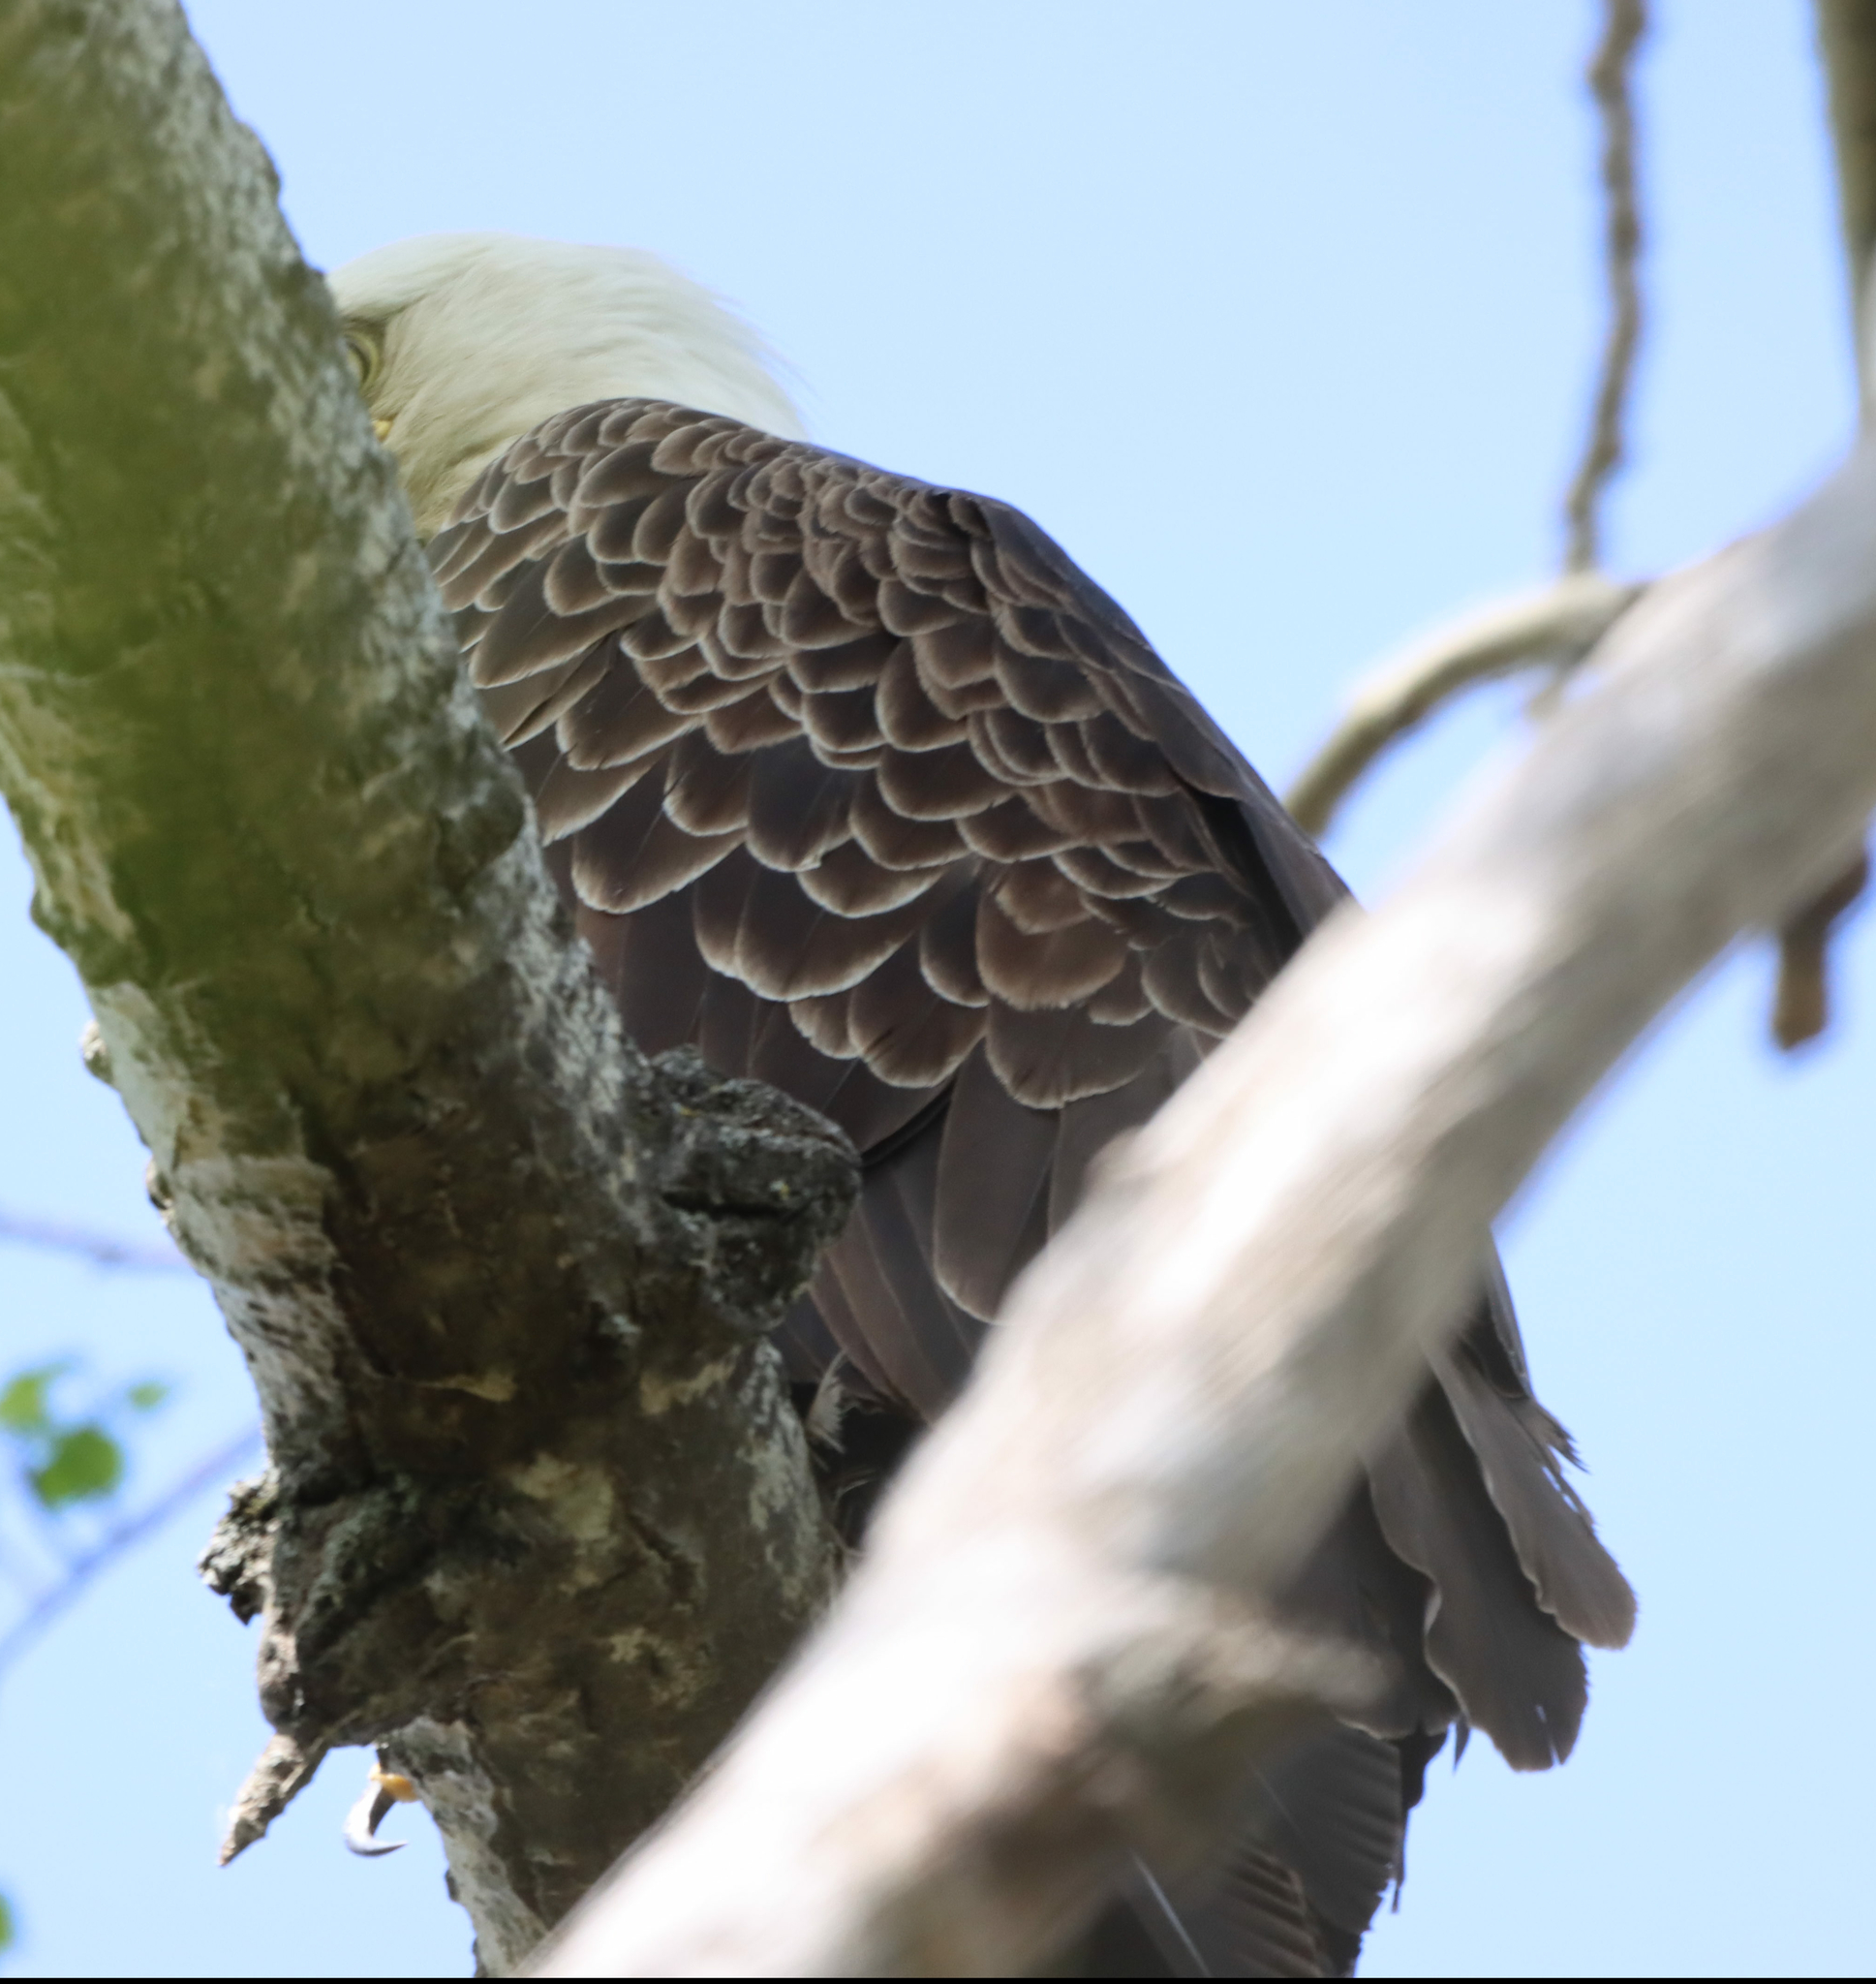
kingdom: Animalia
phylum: Chordata
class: Aves
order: Accipitriformes
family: Accipitridae
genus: Haliaeetus
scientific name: Haliaeetus leucocephalus
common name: Bald eagle
